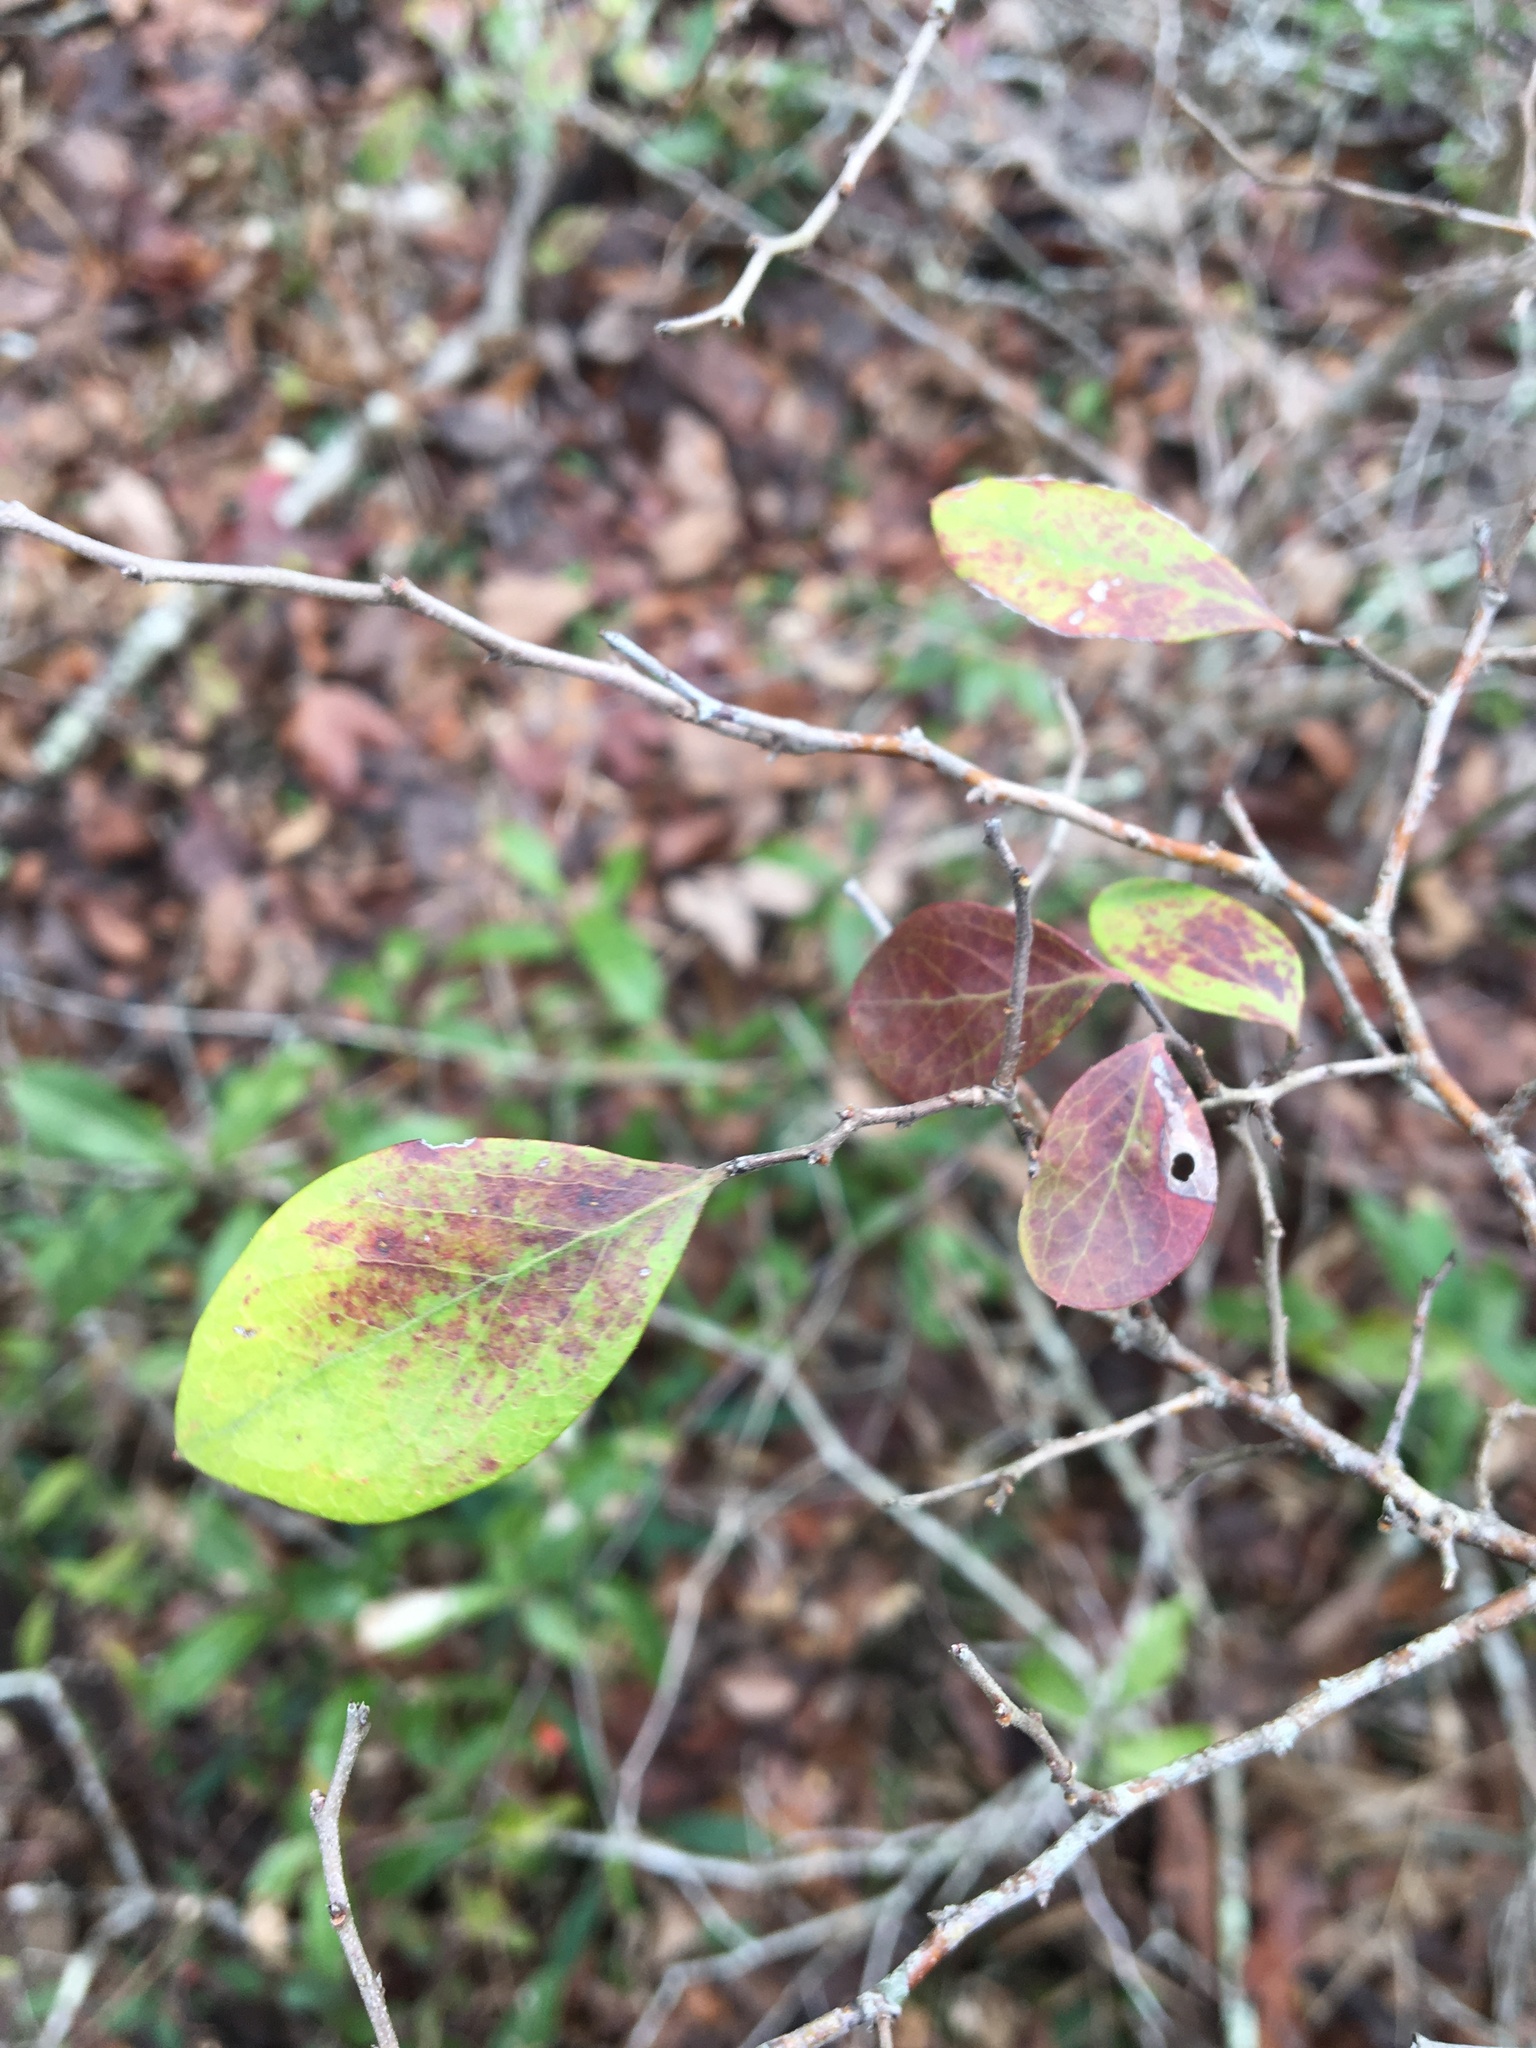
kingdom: Plantae
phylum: Tracheophyta
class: Magnoliopsida
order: Ericales
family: Ericaceae
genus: Vaccinium
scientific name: Vaccinium arboreum
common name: Farkleberry
